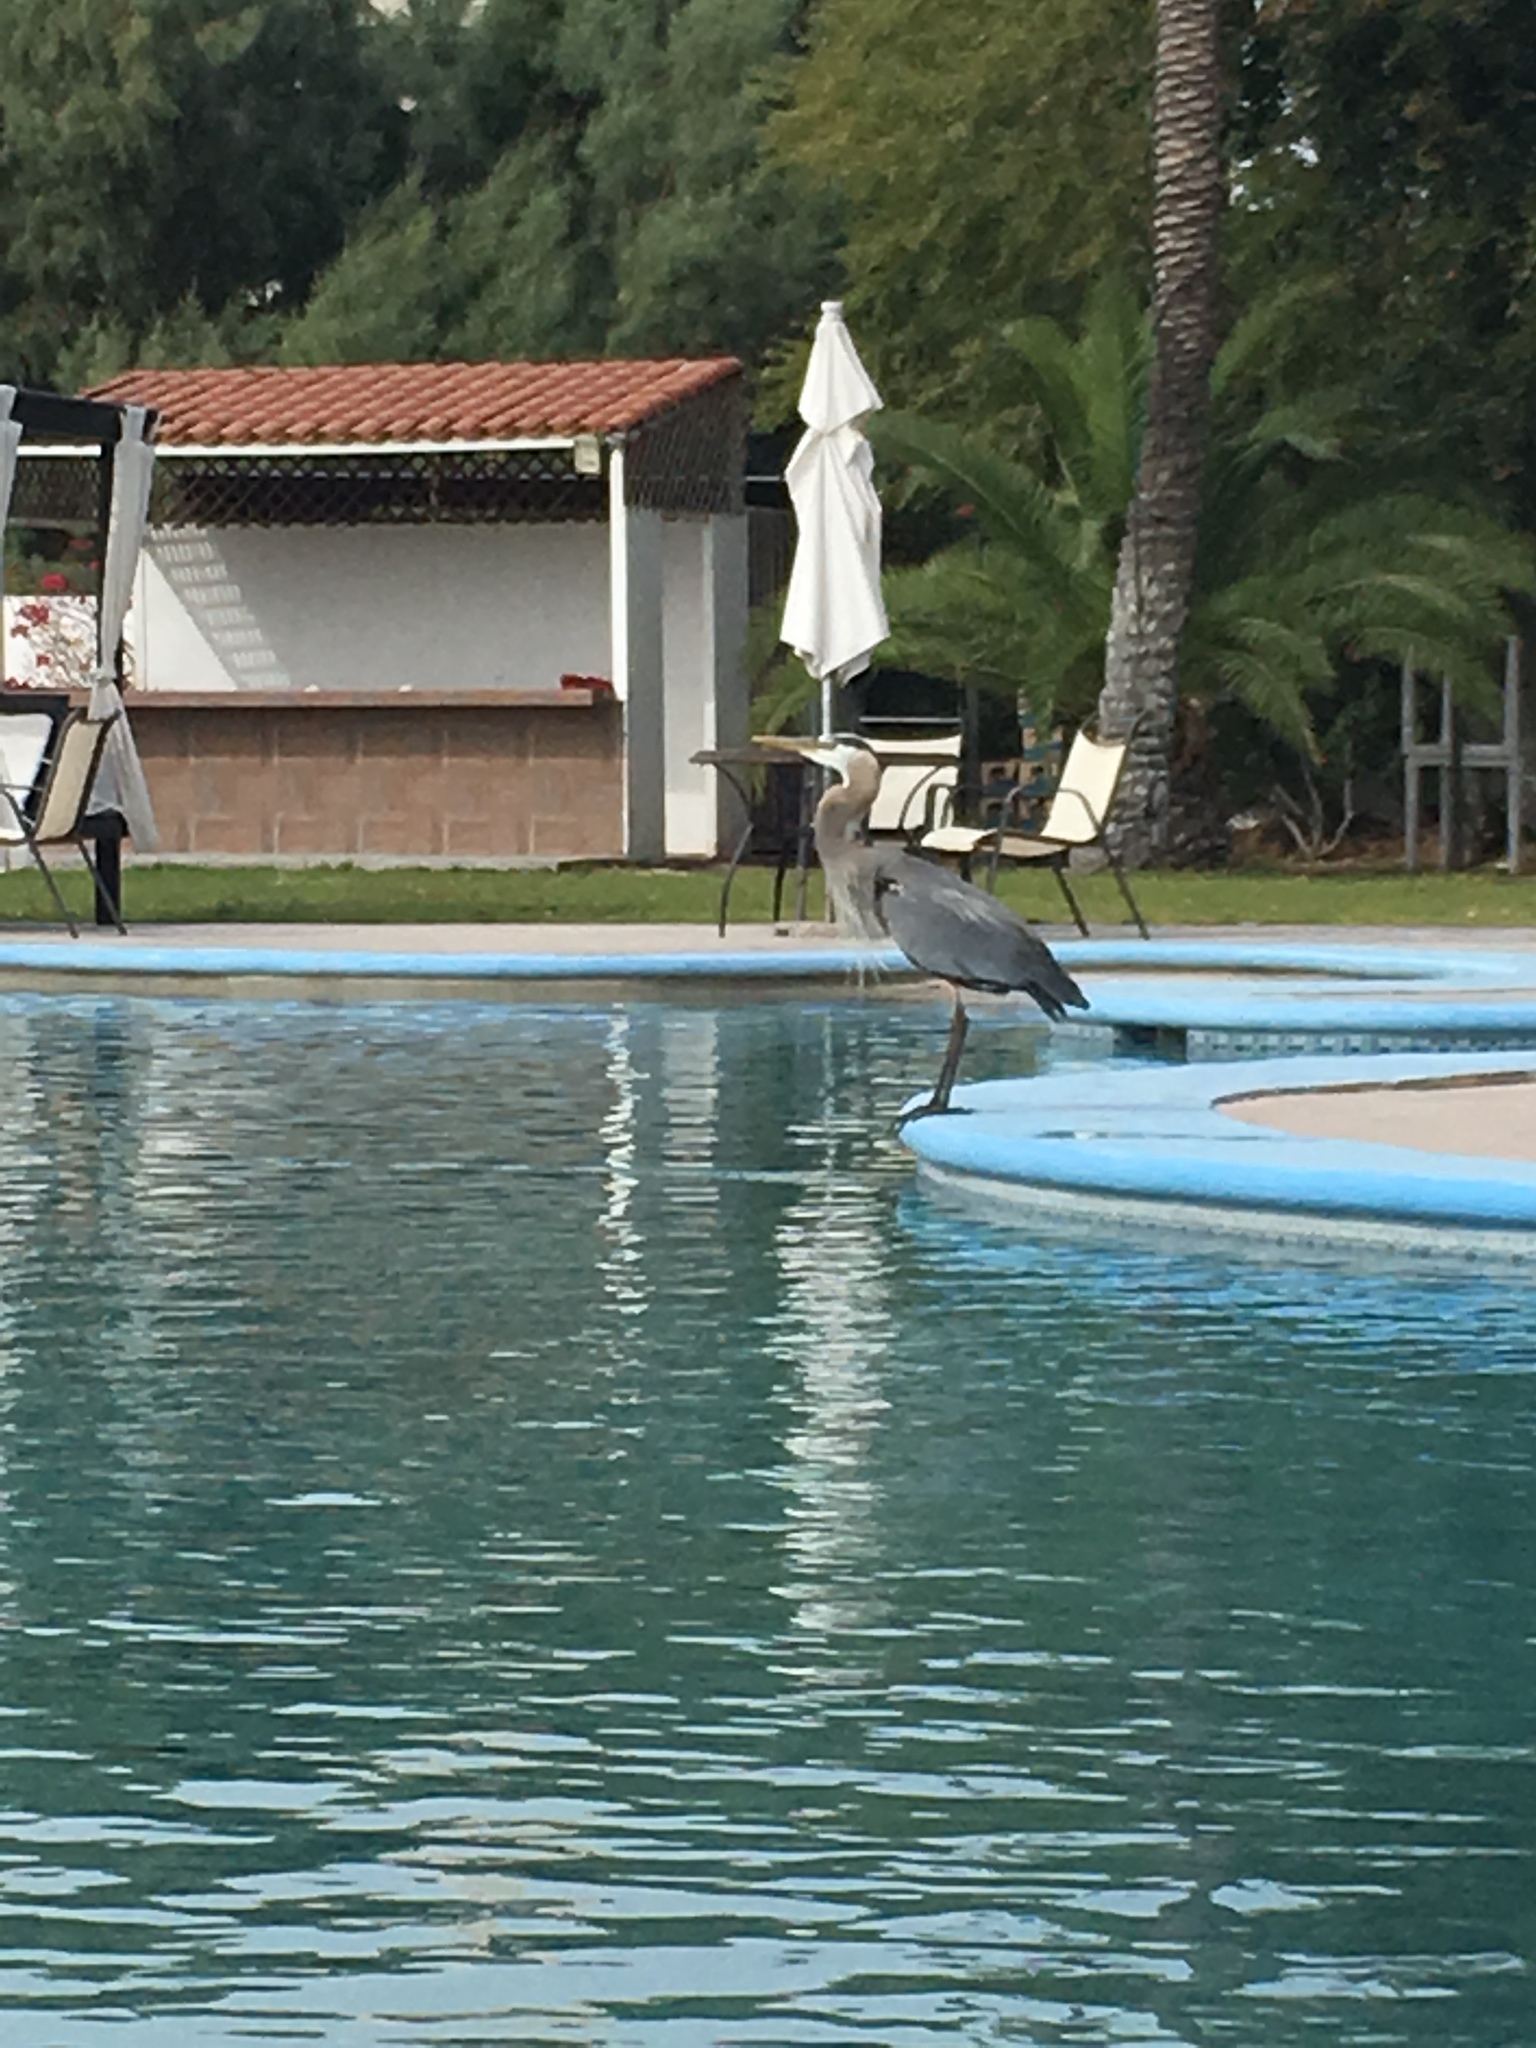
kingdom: Animalia
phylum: Chordata
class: Aves
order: Pelecaniformes
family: Ardeidae
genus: Ardea
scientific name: Ardea herodias
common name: Great blue heron
